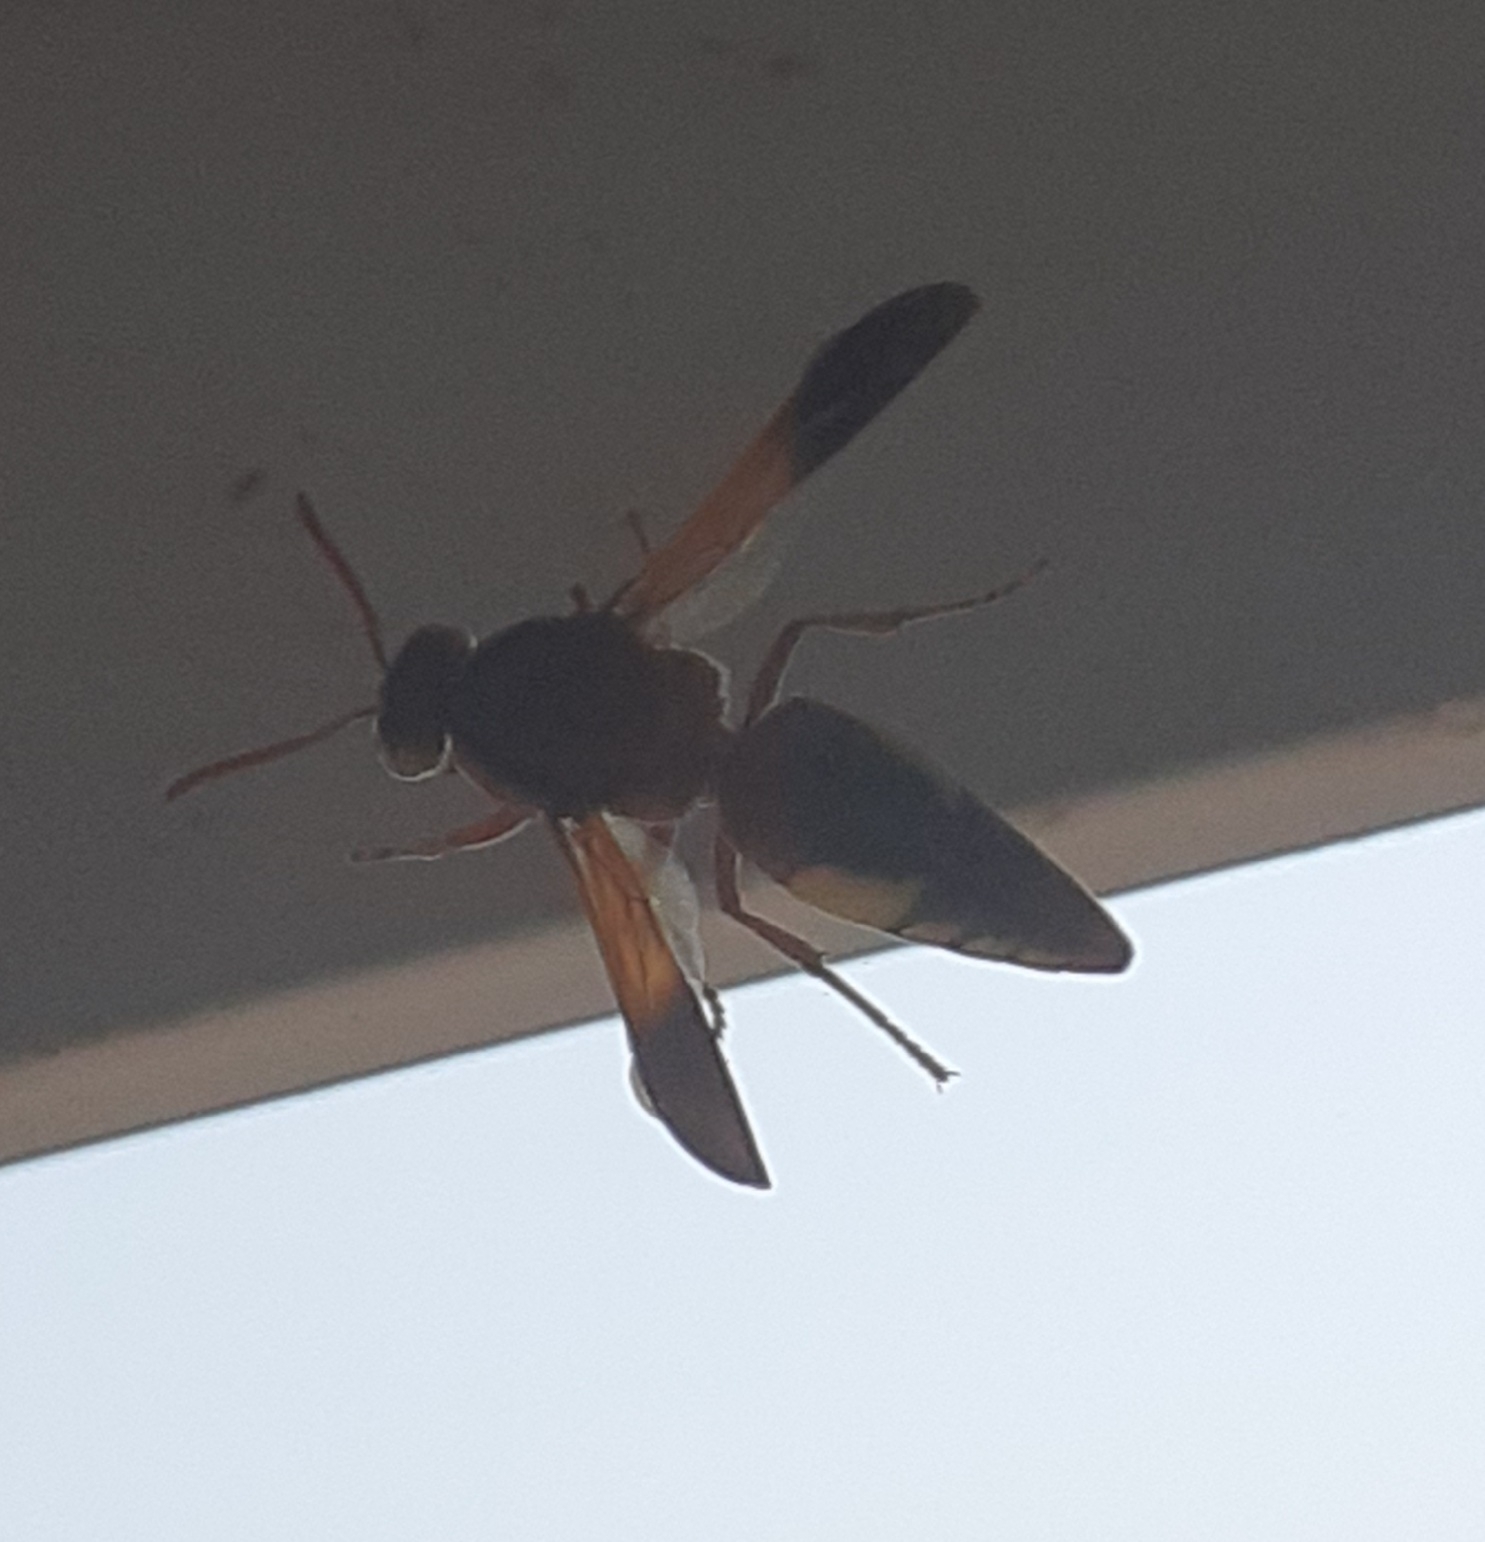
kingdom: Animalia
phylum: Arthropoda
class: Insecta
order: Hymenoptera
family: Eumenidae
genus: Rhynchium
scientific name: Rhynchium oculatum
